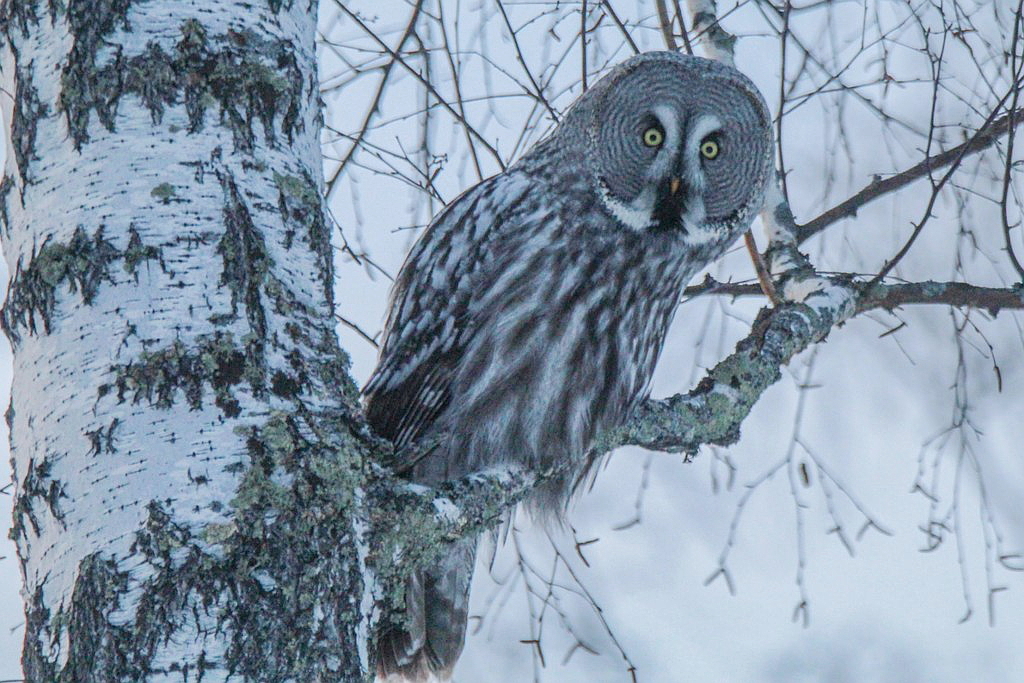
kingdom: Animalia
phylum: Chordata
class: Aves
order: Strigiformes
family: Strigidae
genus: Strix
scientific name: Strix nebulosa
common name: Great grey owl
